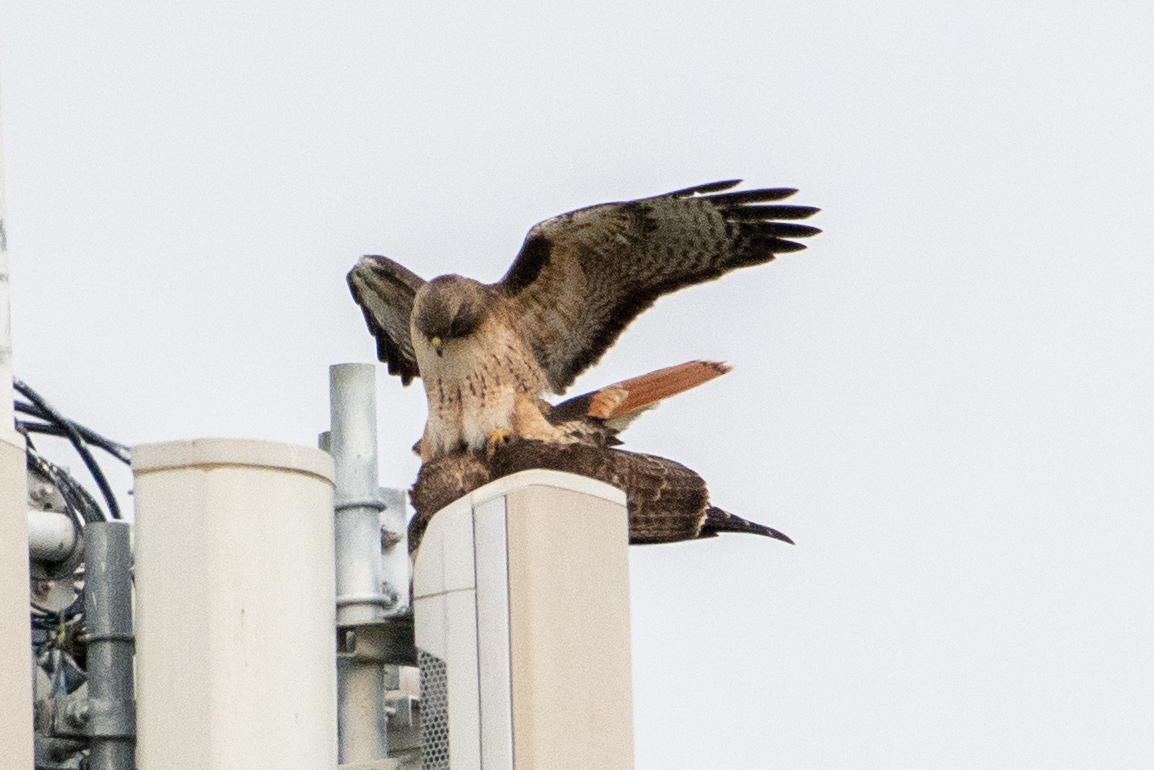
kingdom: Animalia
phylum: Chordata
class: Aves
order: Accipitriformes
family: Accipitridae
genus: Buteo
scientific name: Buteo jamaicensis
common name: Red-tailed hawk
